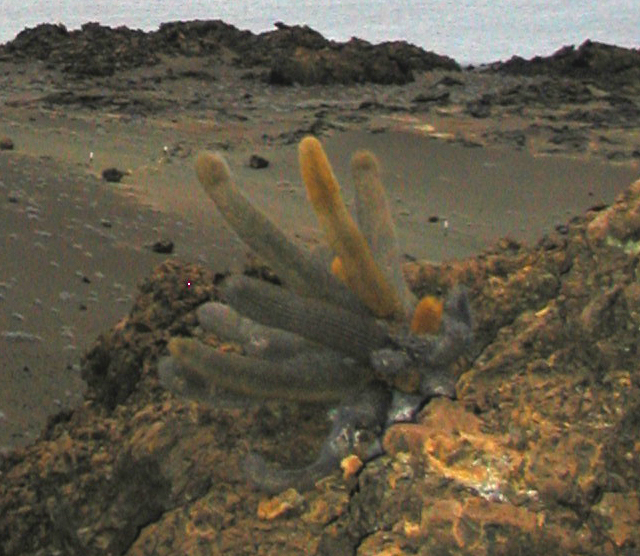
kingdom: Plantae
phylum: Tracheophyta
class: Magnoliopsida
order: Caryophyllales
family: Cactaceae
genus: Brachycereus
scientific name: Brachycereus nesioticus
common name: Lava cactus
